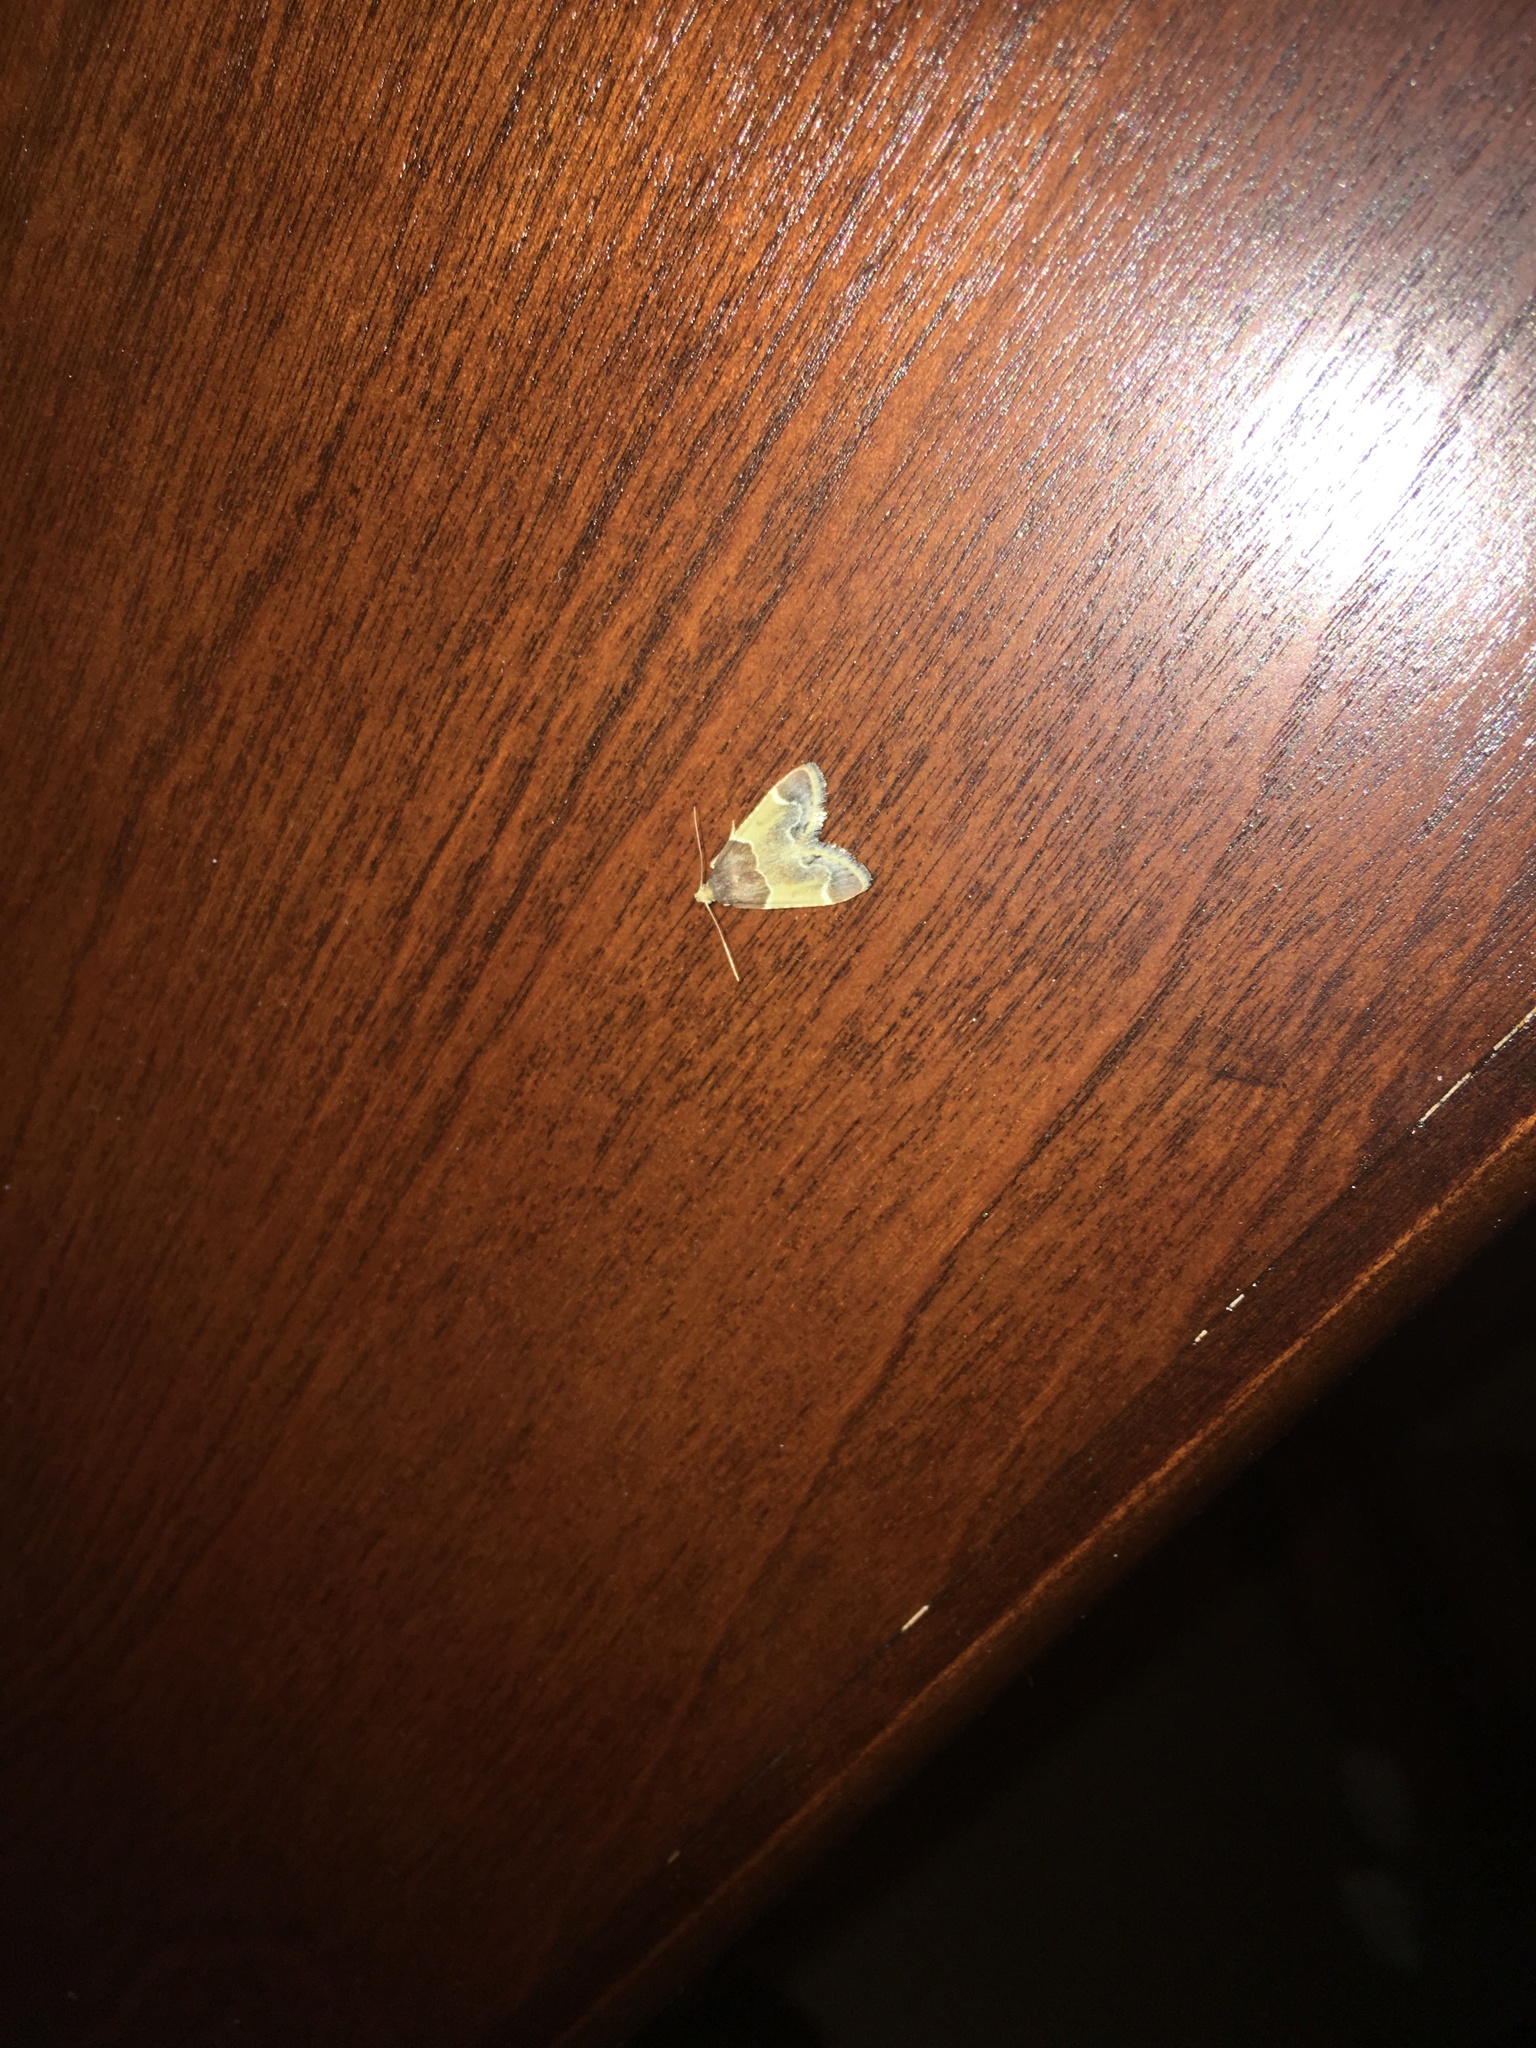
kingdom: Animalia
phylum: Arthropoda
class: Insecta
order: Lepidoptera
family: Pyralidae
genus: Pyralis
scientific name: Pyralis farinalis
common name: Meal moth
